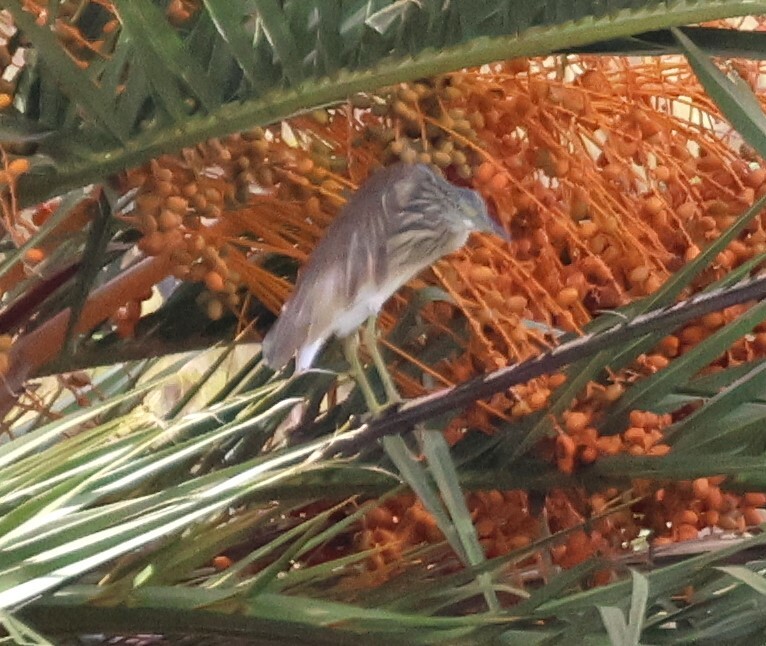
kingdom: Animalia
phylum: Chordata
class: Aves
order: Pelecaniformes
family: Ardeidae
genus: Ardeola
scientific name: Ardeola ralloides
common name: Squacco heron
